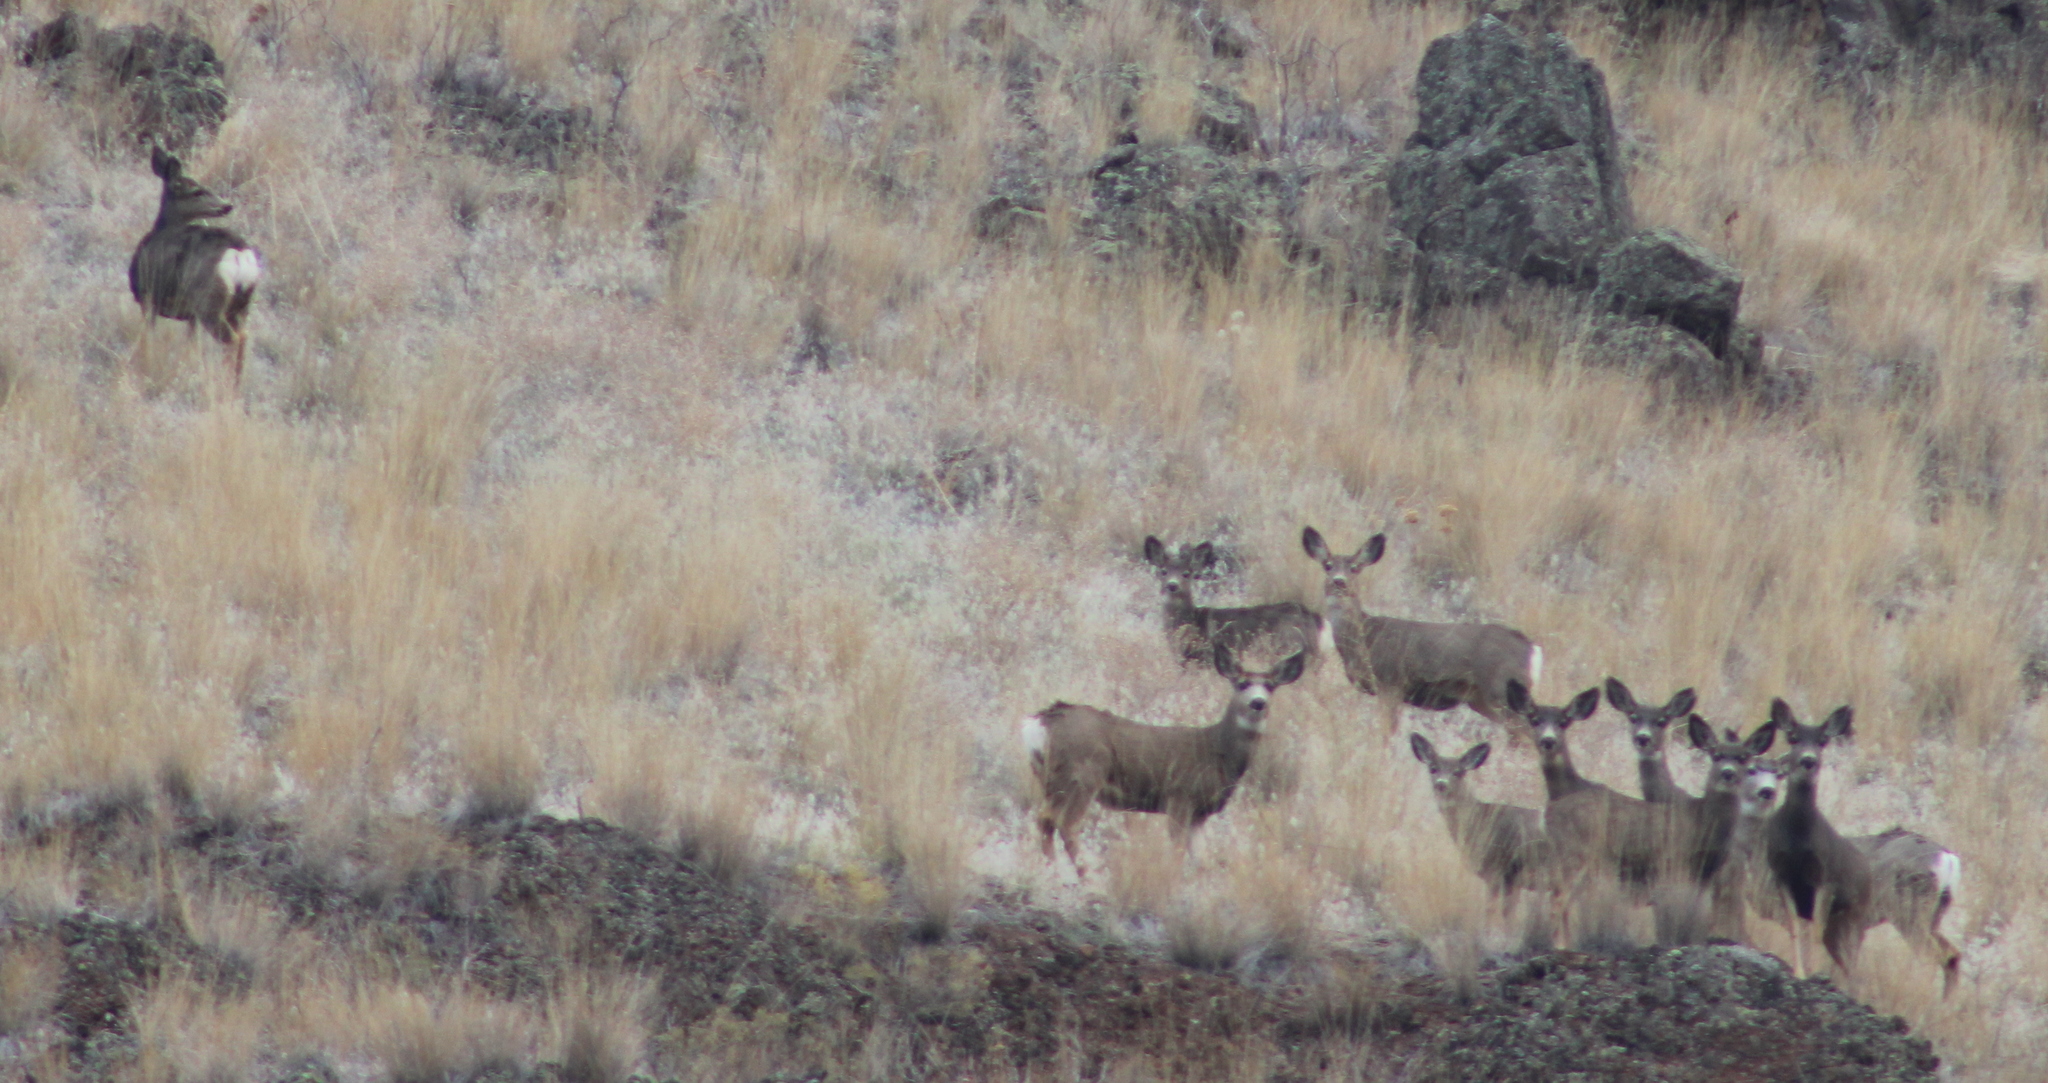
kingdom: Animalia
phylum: Chordata
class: Mammalia
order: Artiodactyla
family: Cervidae
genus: Odocoileus
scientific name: Odocoileus hemionus
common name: Mule deer
